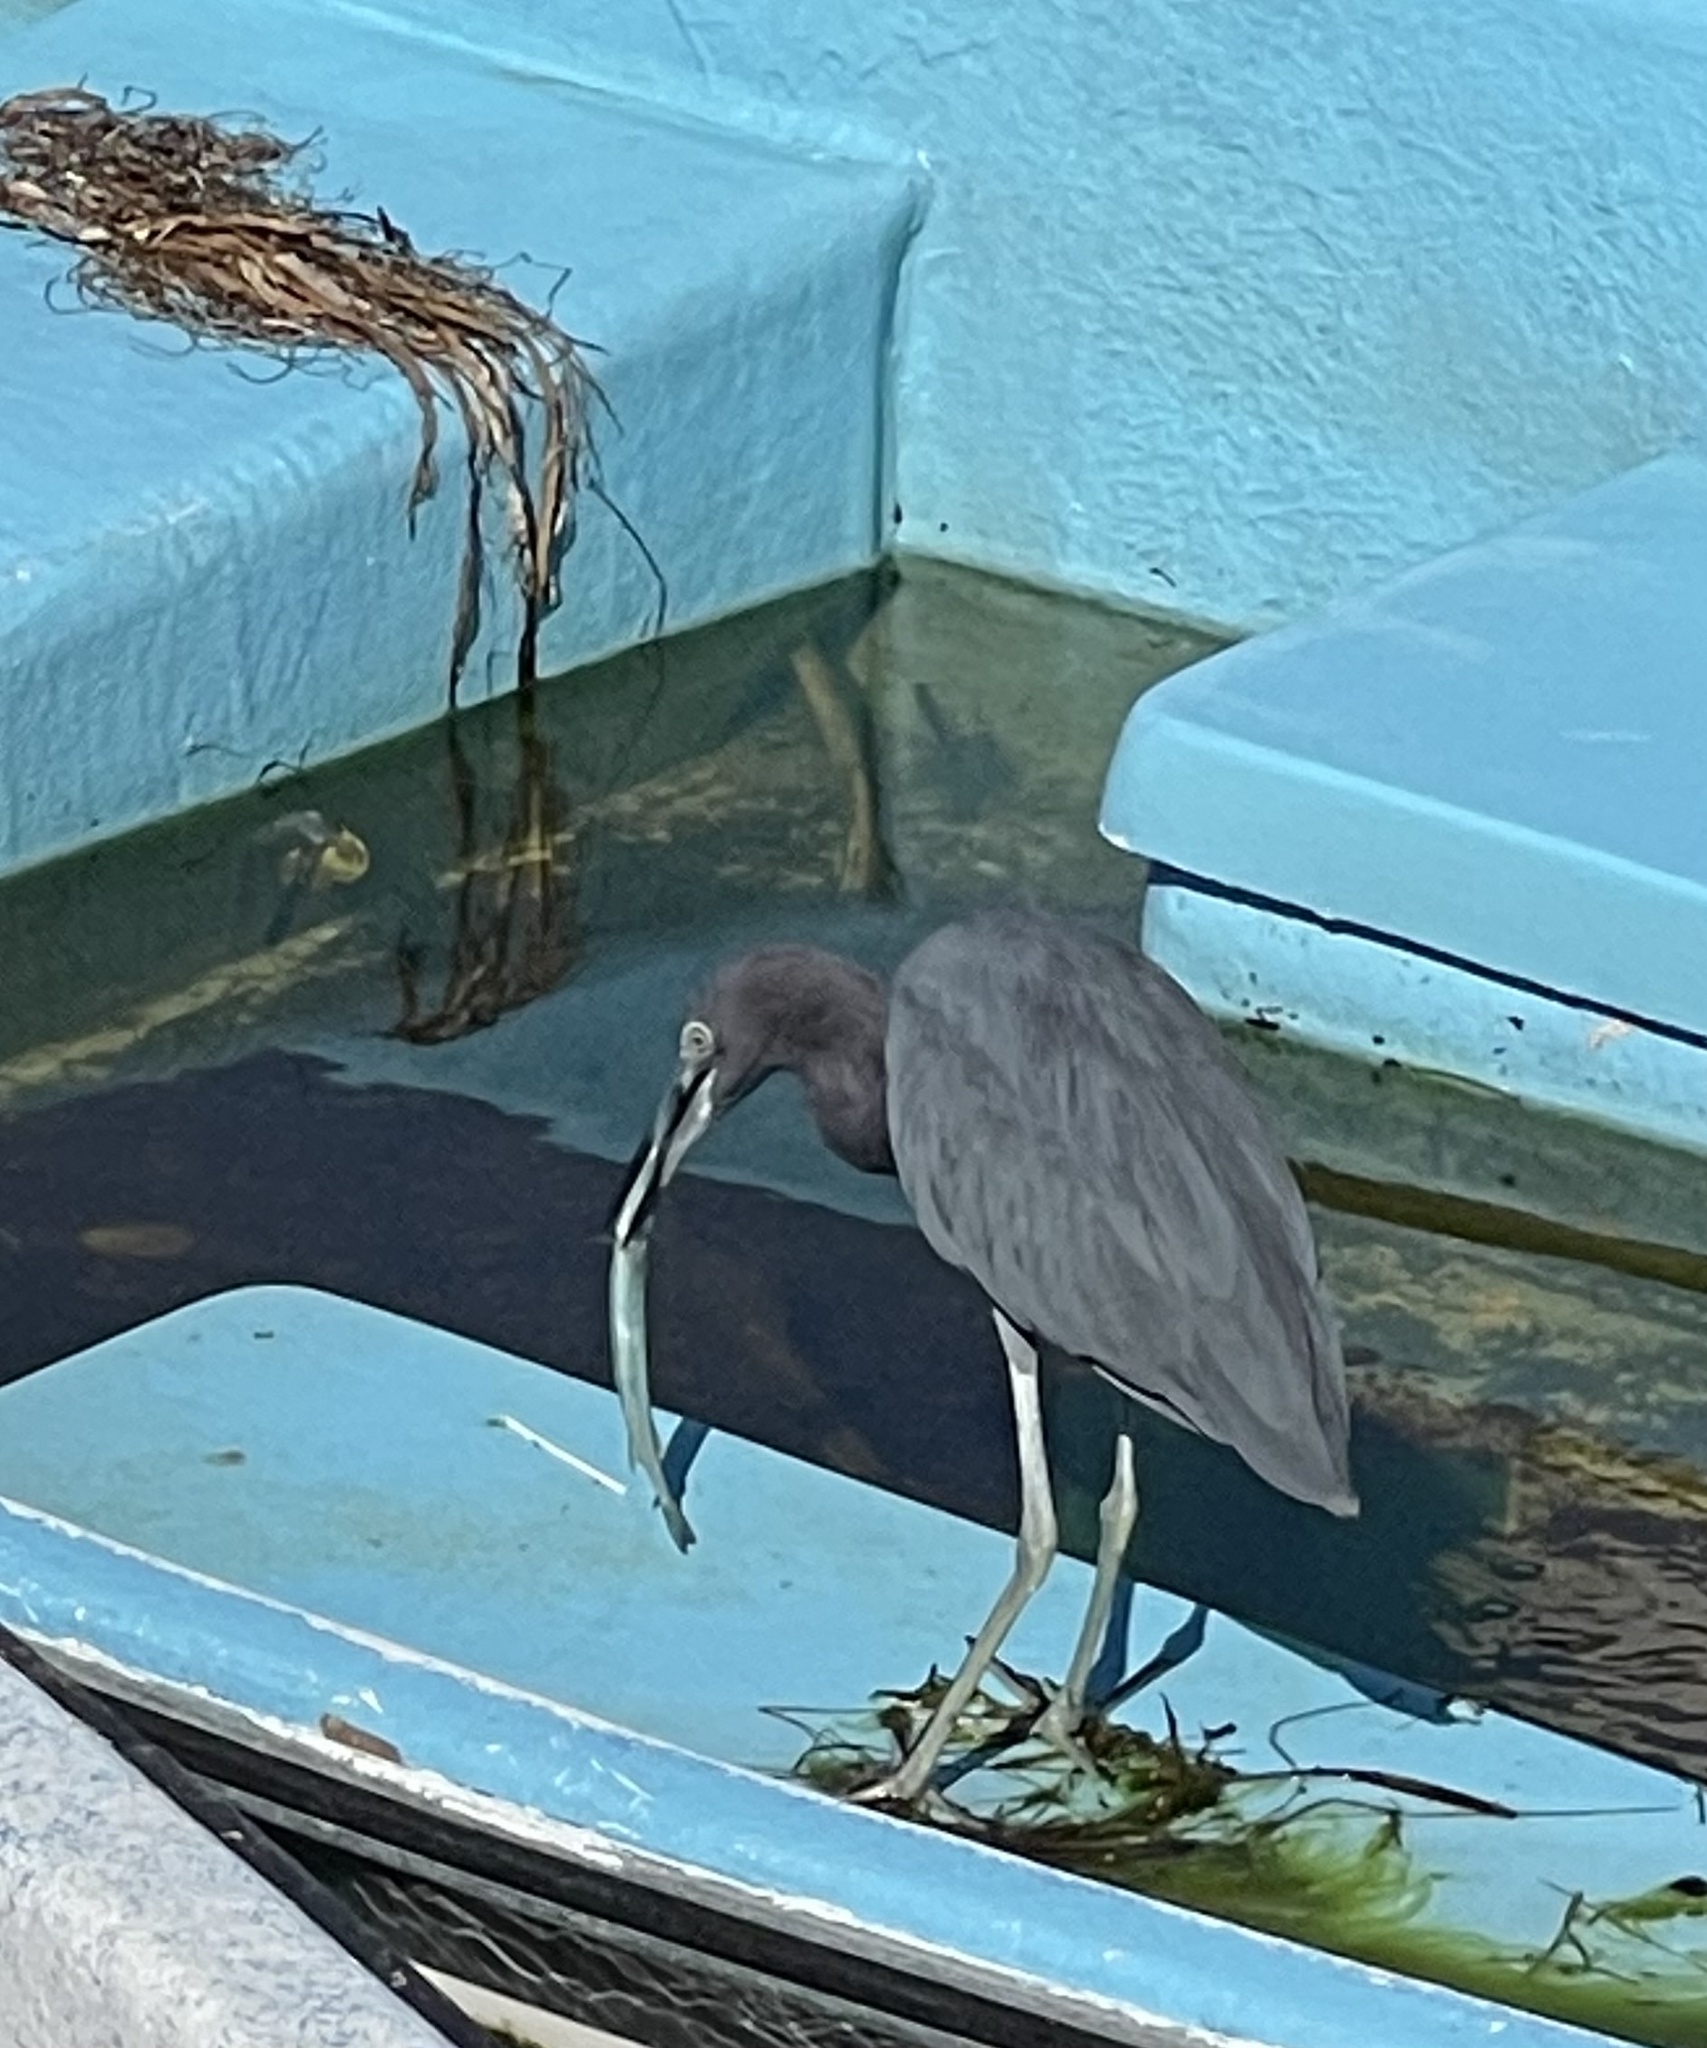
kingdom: Animalia
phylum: Chordata
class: Aves
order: Pelecaniformes
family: Ardeidae
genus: Egretta
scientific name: Egretta caerulea
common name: Little blue heron
